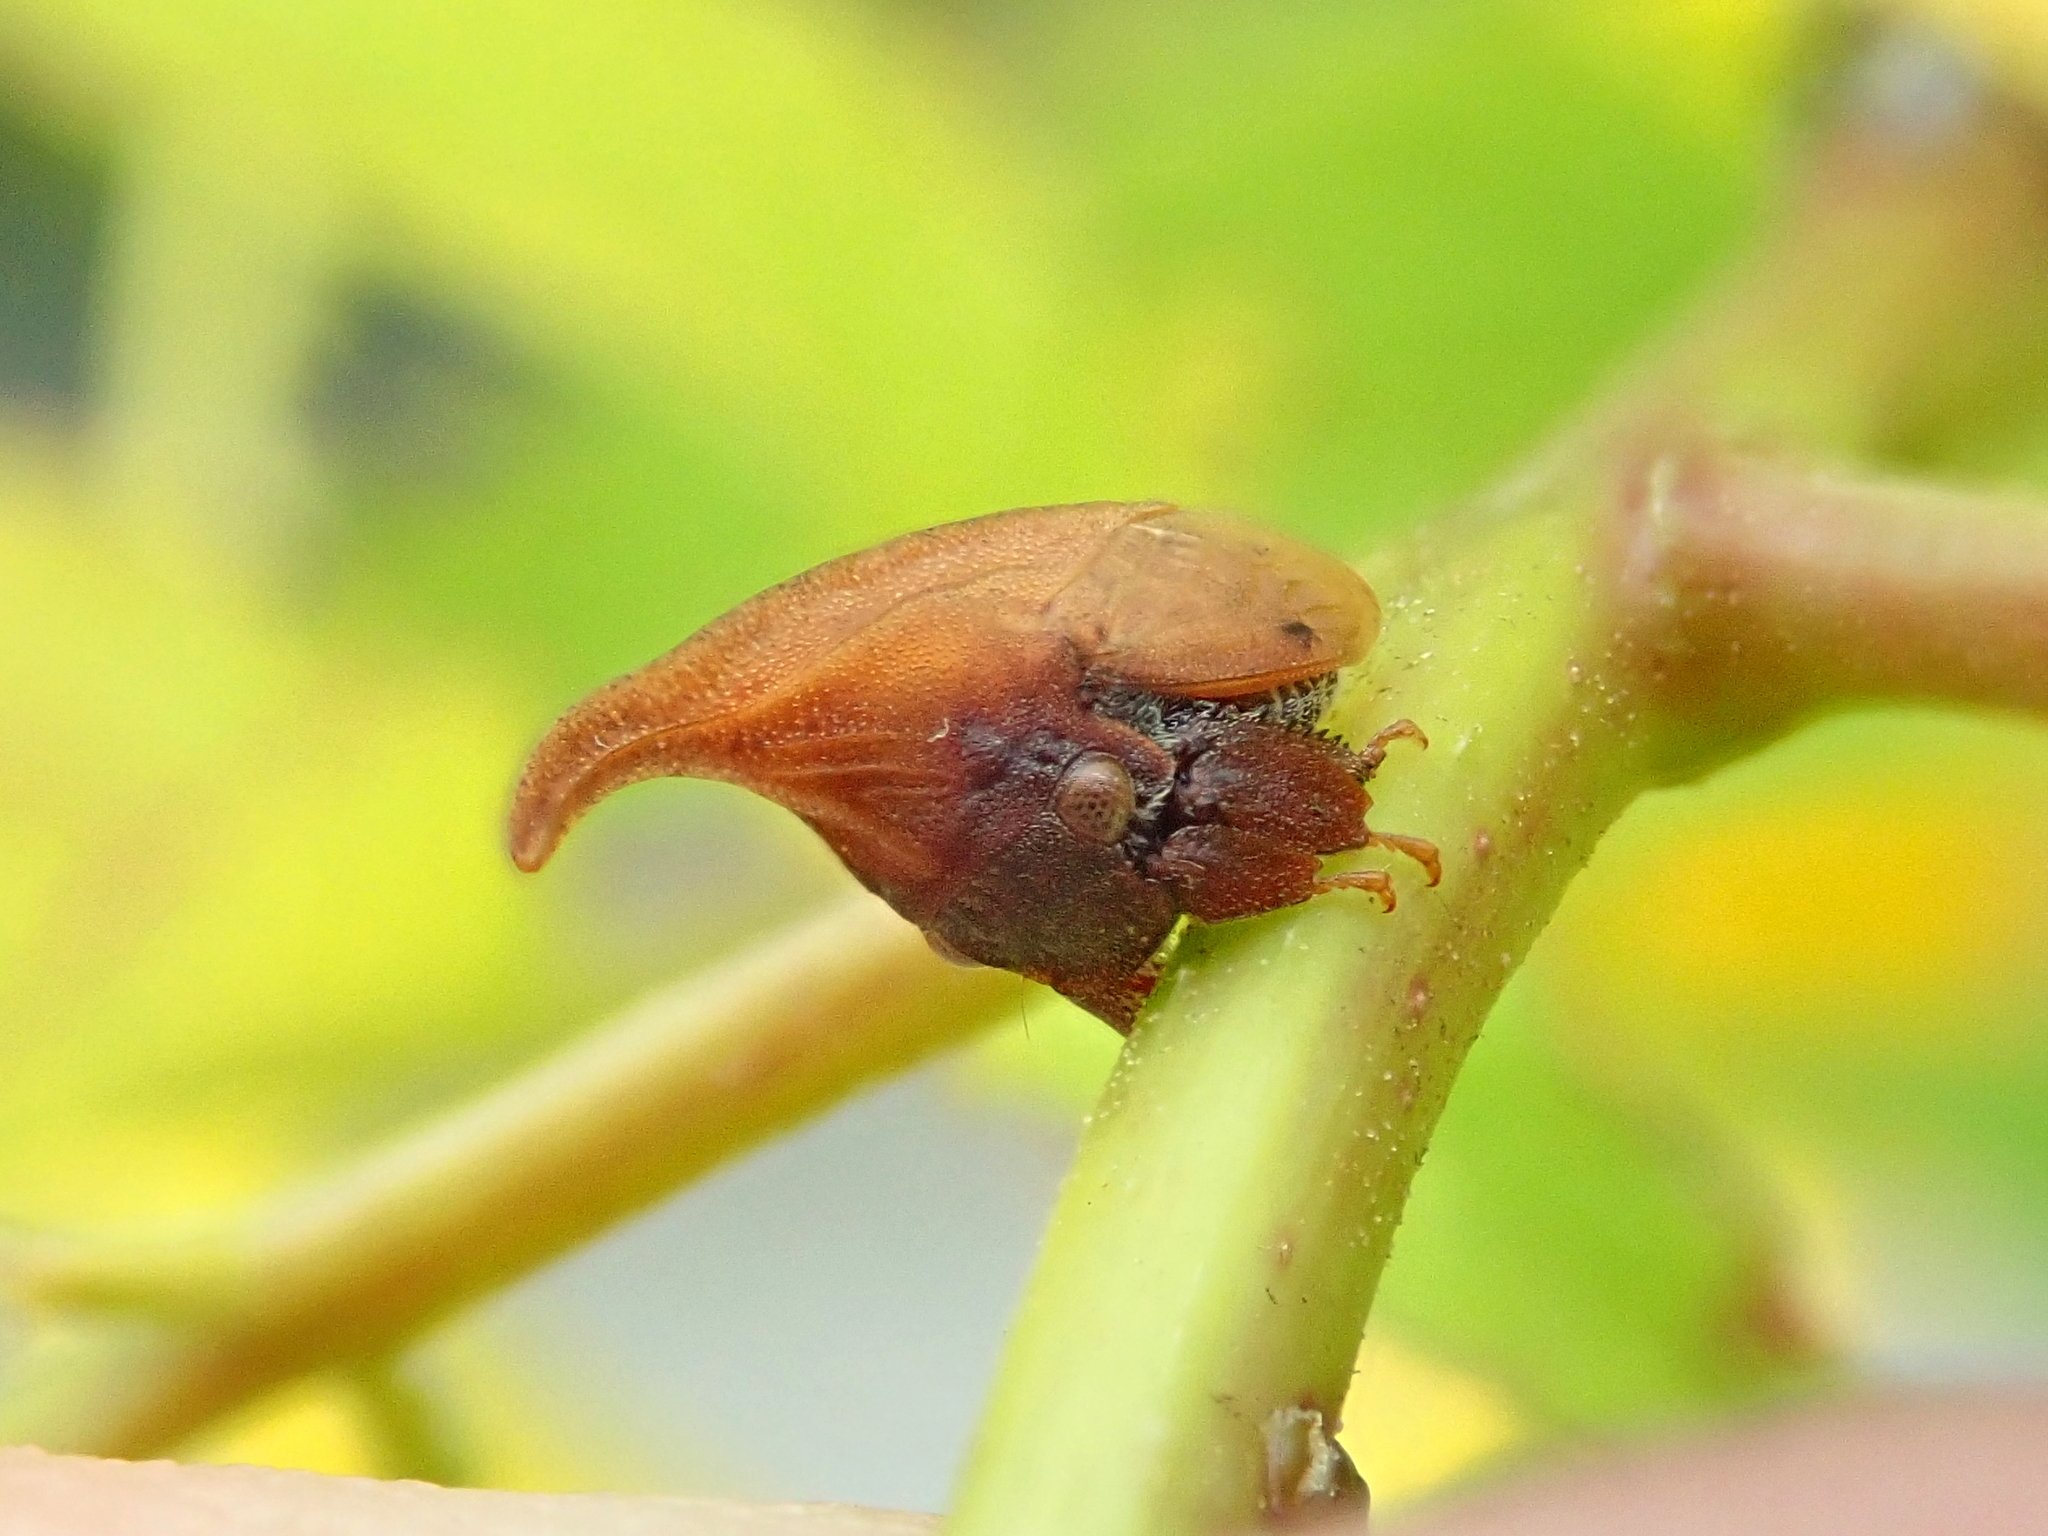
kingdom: Animalia
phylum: Arthropoda
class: Insecta
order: Hemiptera
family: Membracidae
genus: Enchenopa
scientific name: Enchenopa squamigera
